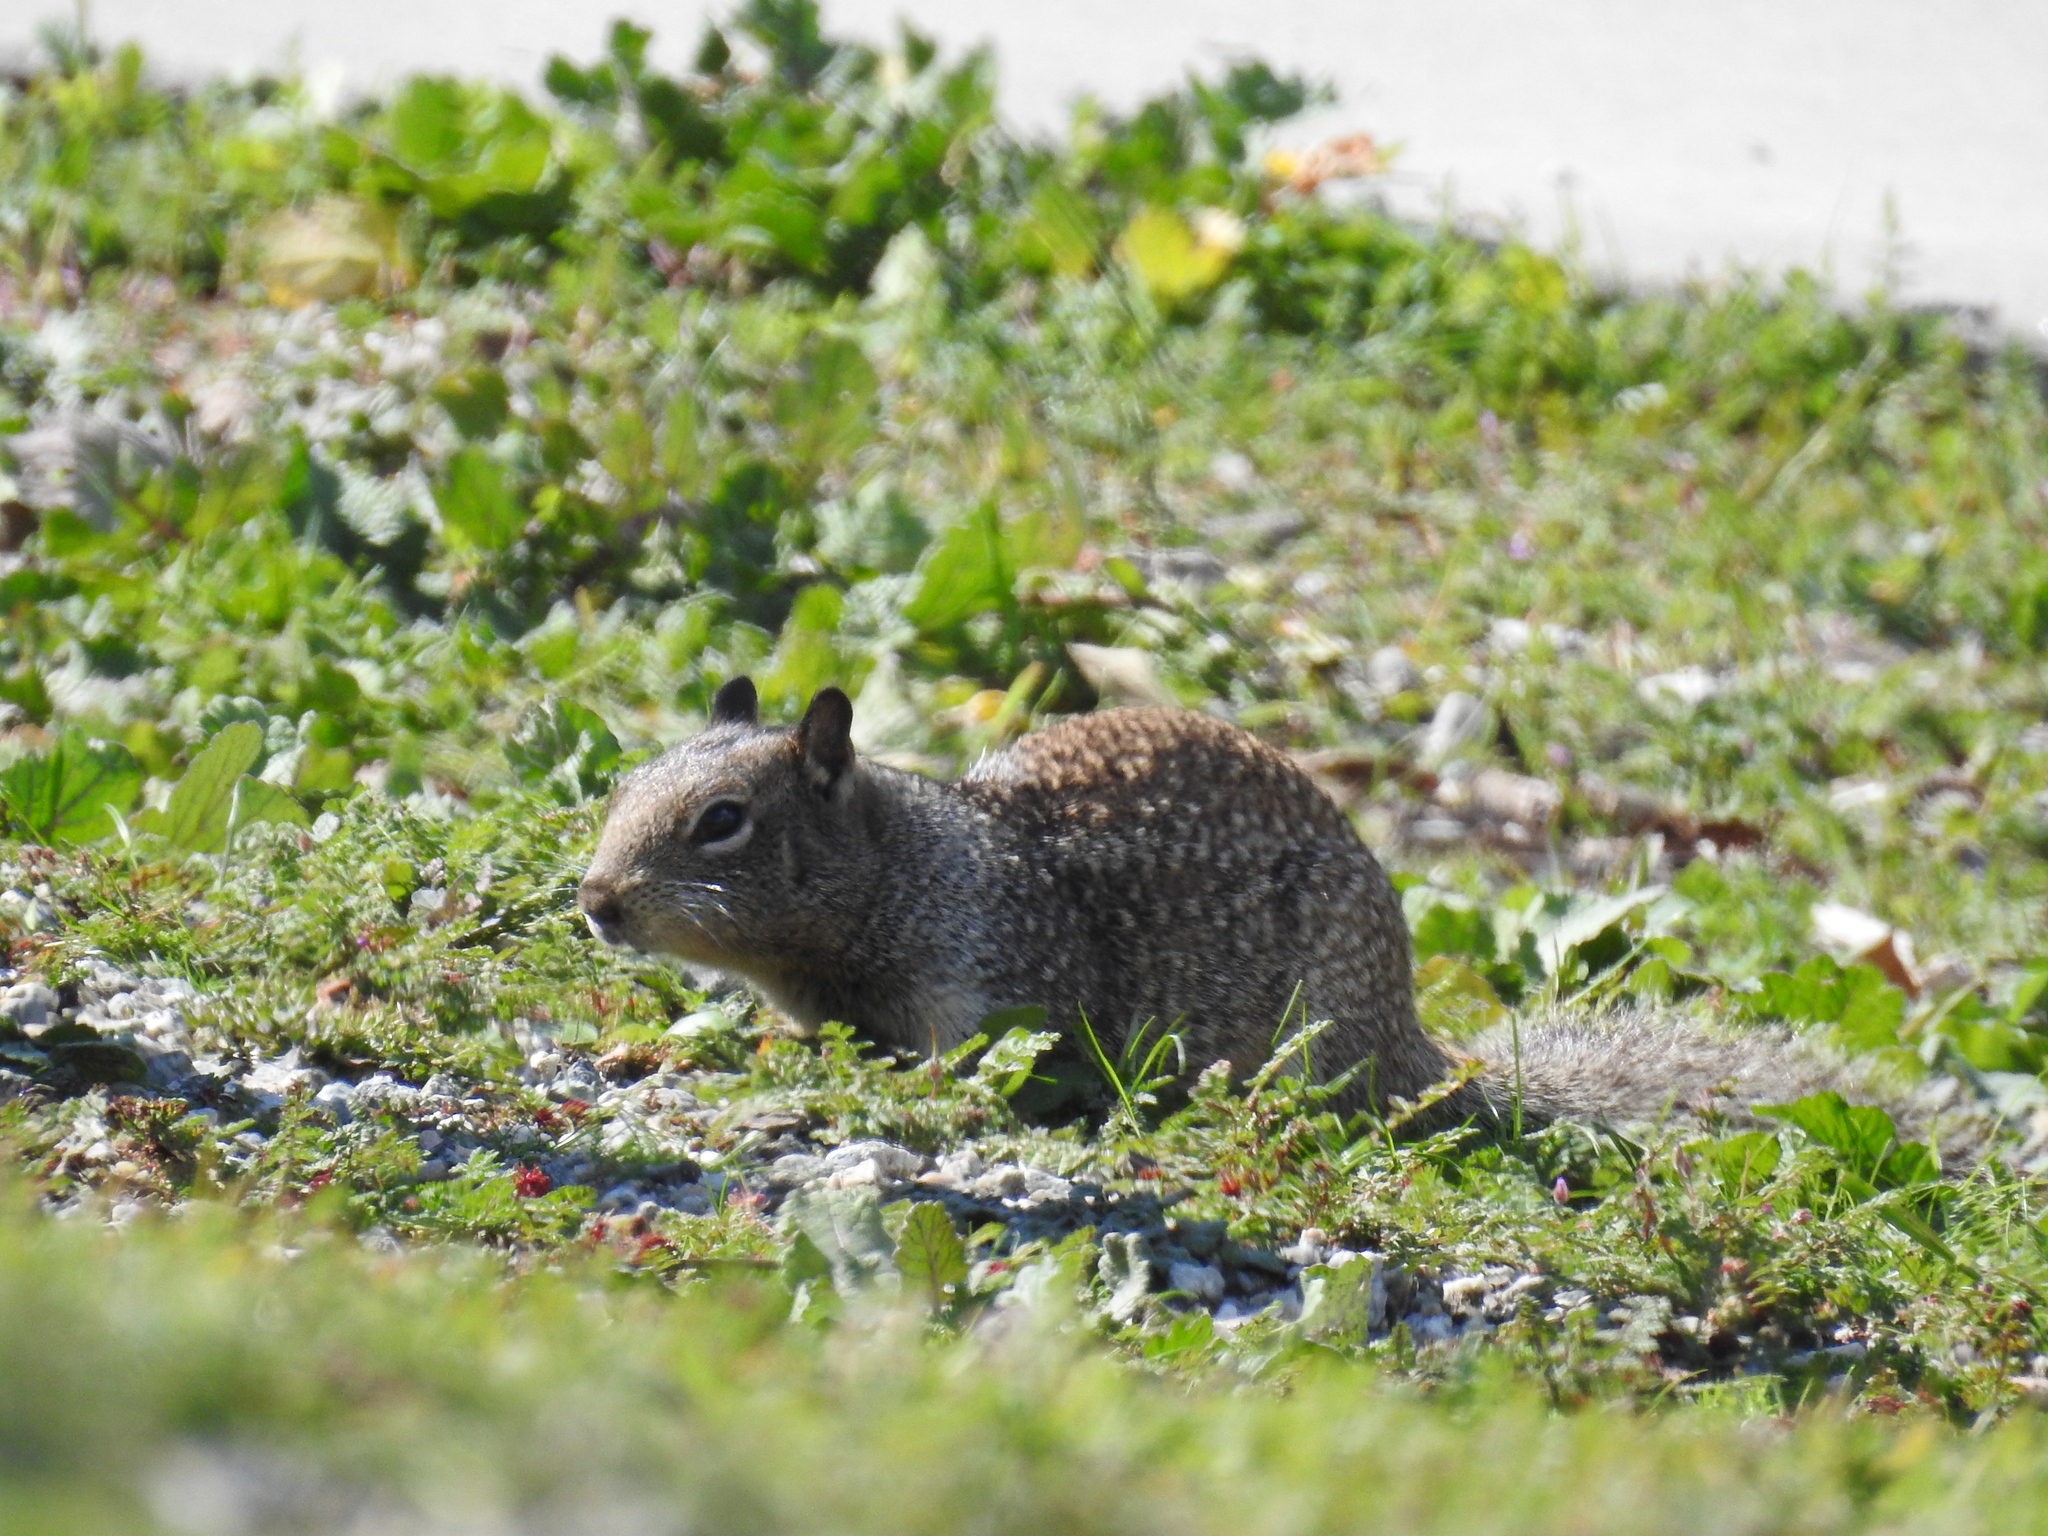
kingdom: Animalia
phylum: Chordata
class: Mammalia
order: Rodentia
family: Sciuridae
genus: Otospermophilus
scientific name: Otospermophilus beecheyi
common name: California ground squirrel
